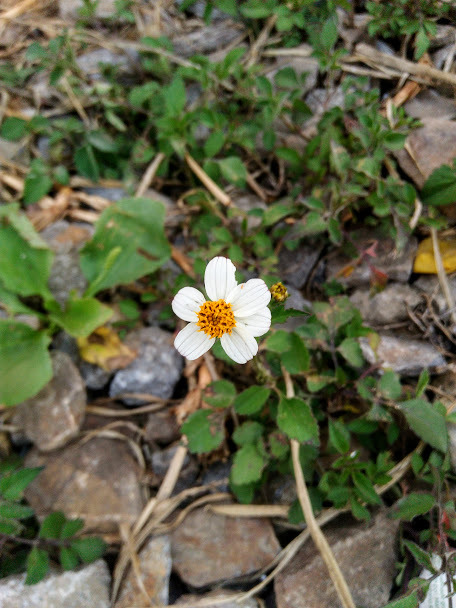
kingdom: Plantae
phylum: Tracheophyta
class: Magnoliopsida
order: Asterales
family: Asteraceae
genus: Bidens
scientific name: Bidens alba
